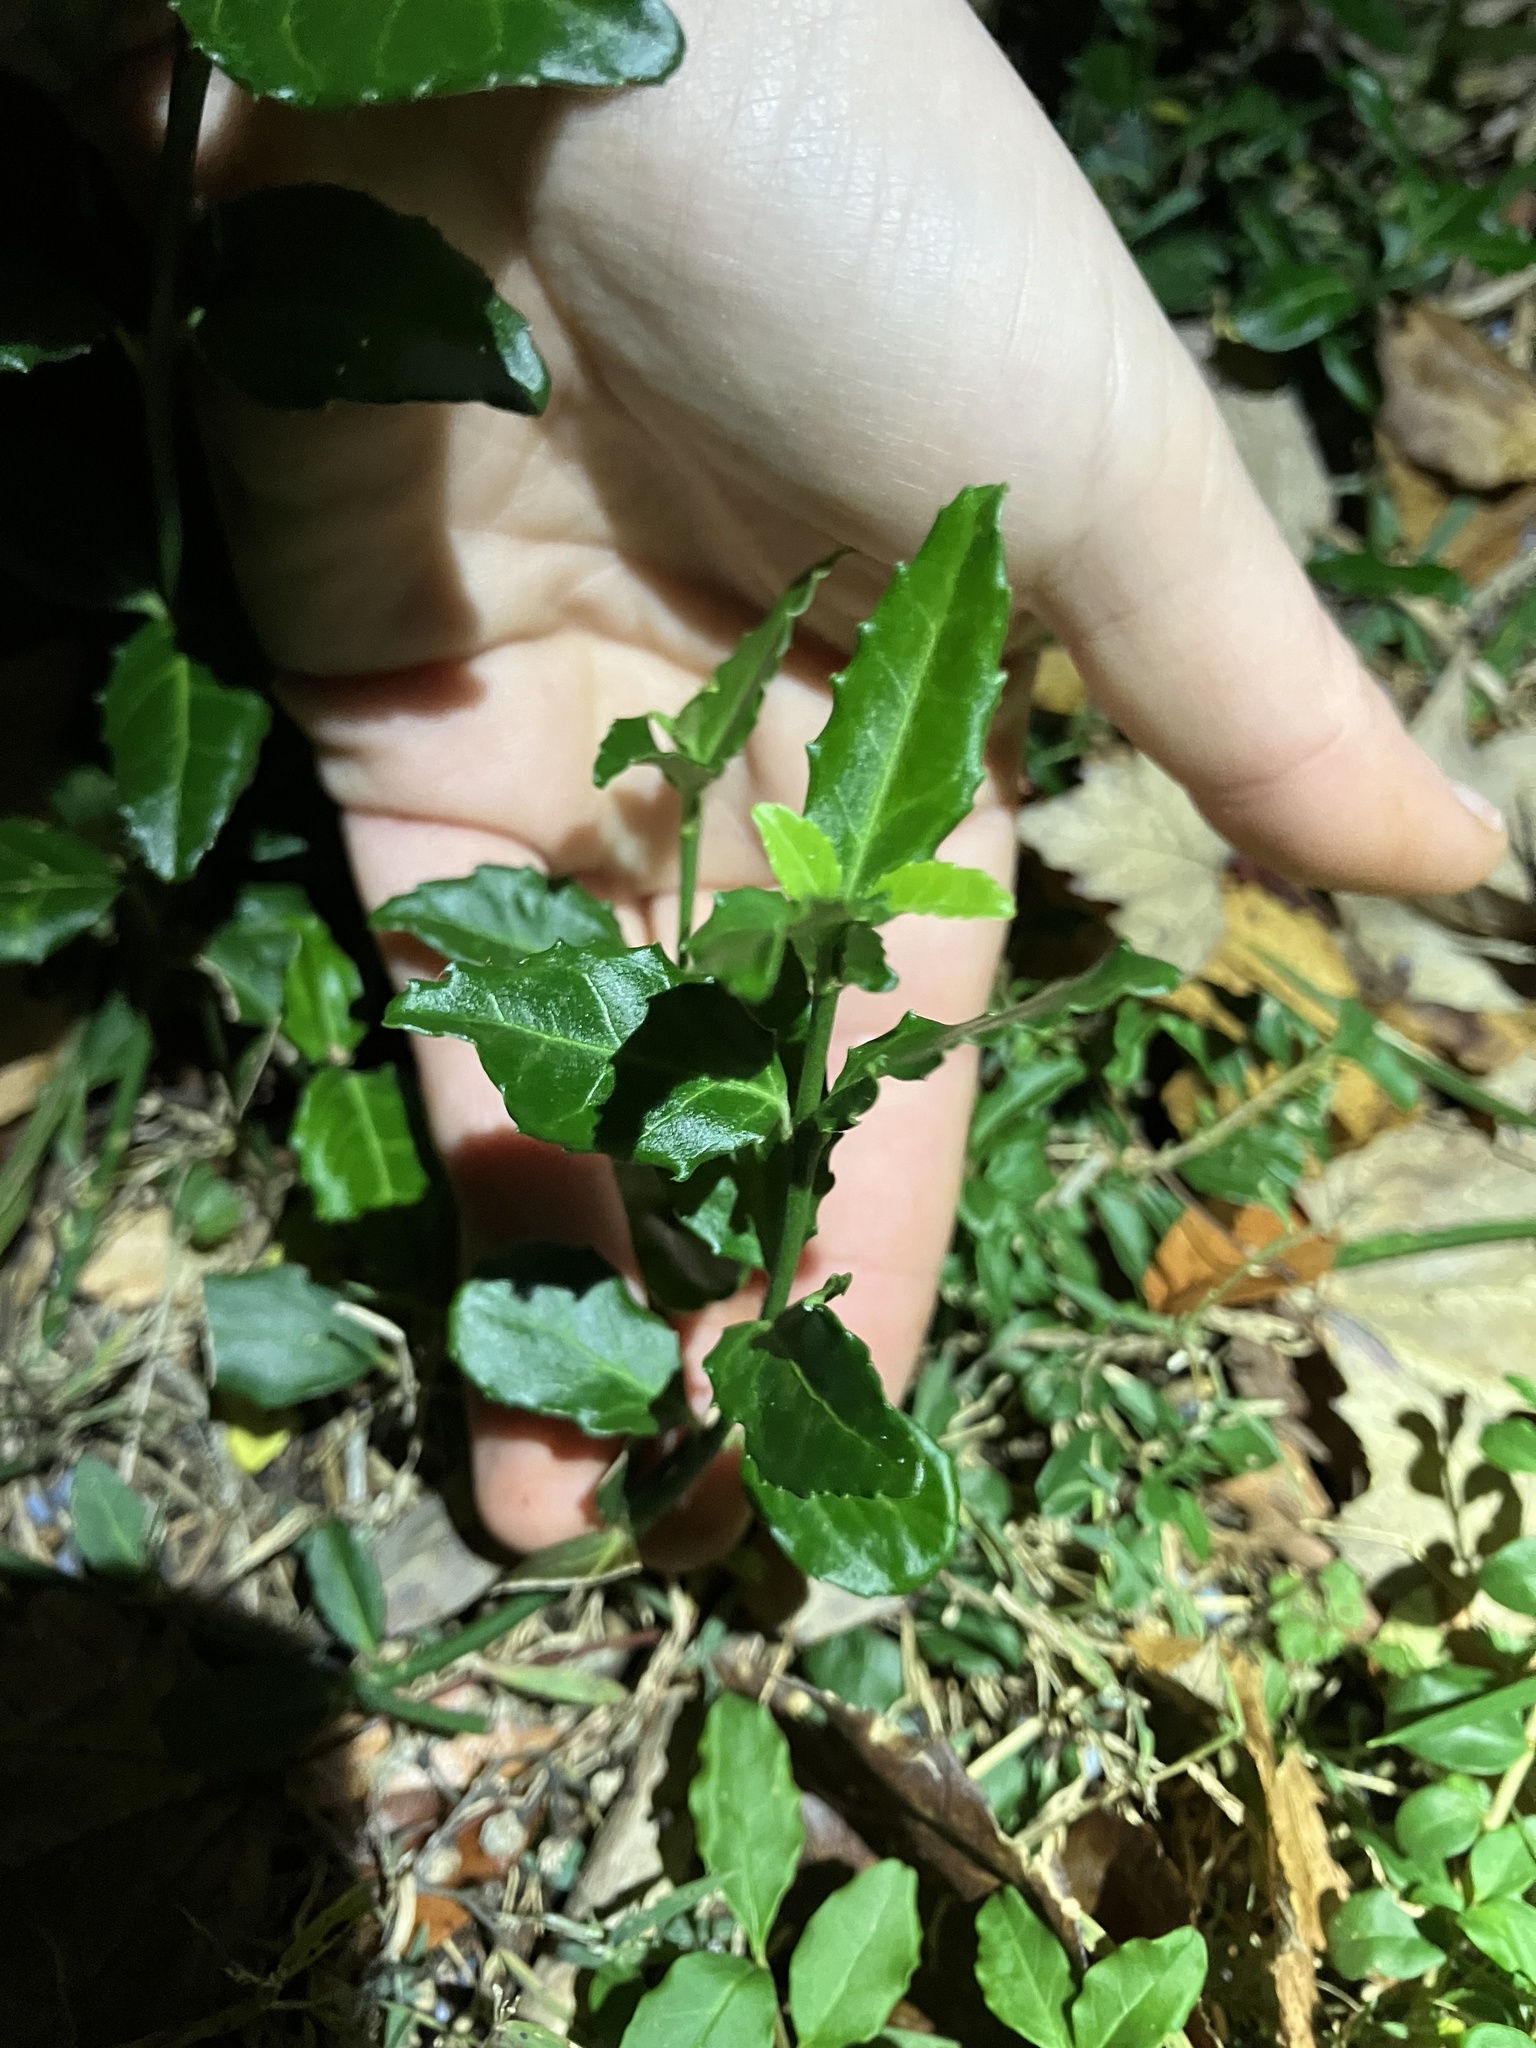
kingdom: Plantae
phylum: Tracheophyta
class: Magnoliopsida
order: Celastrales
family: Celastraceae
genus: Euonymus
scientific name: Euonymus fortunei
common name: Climbing euonymus
